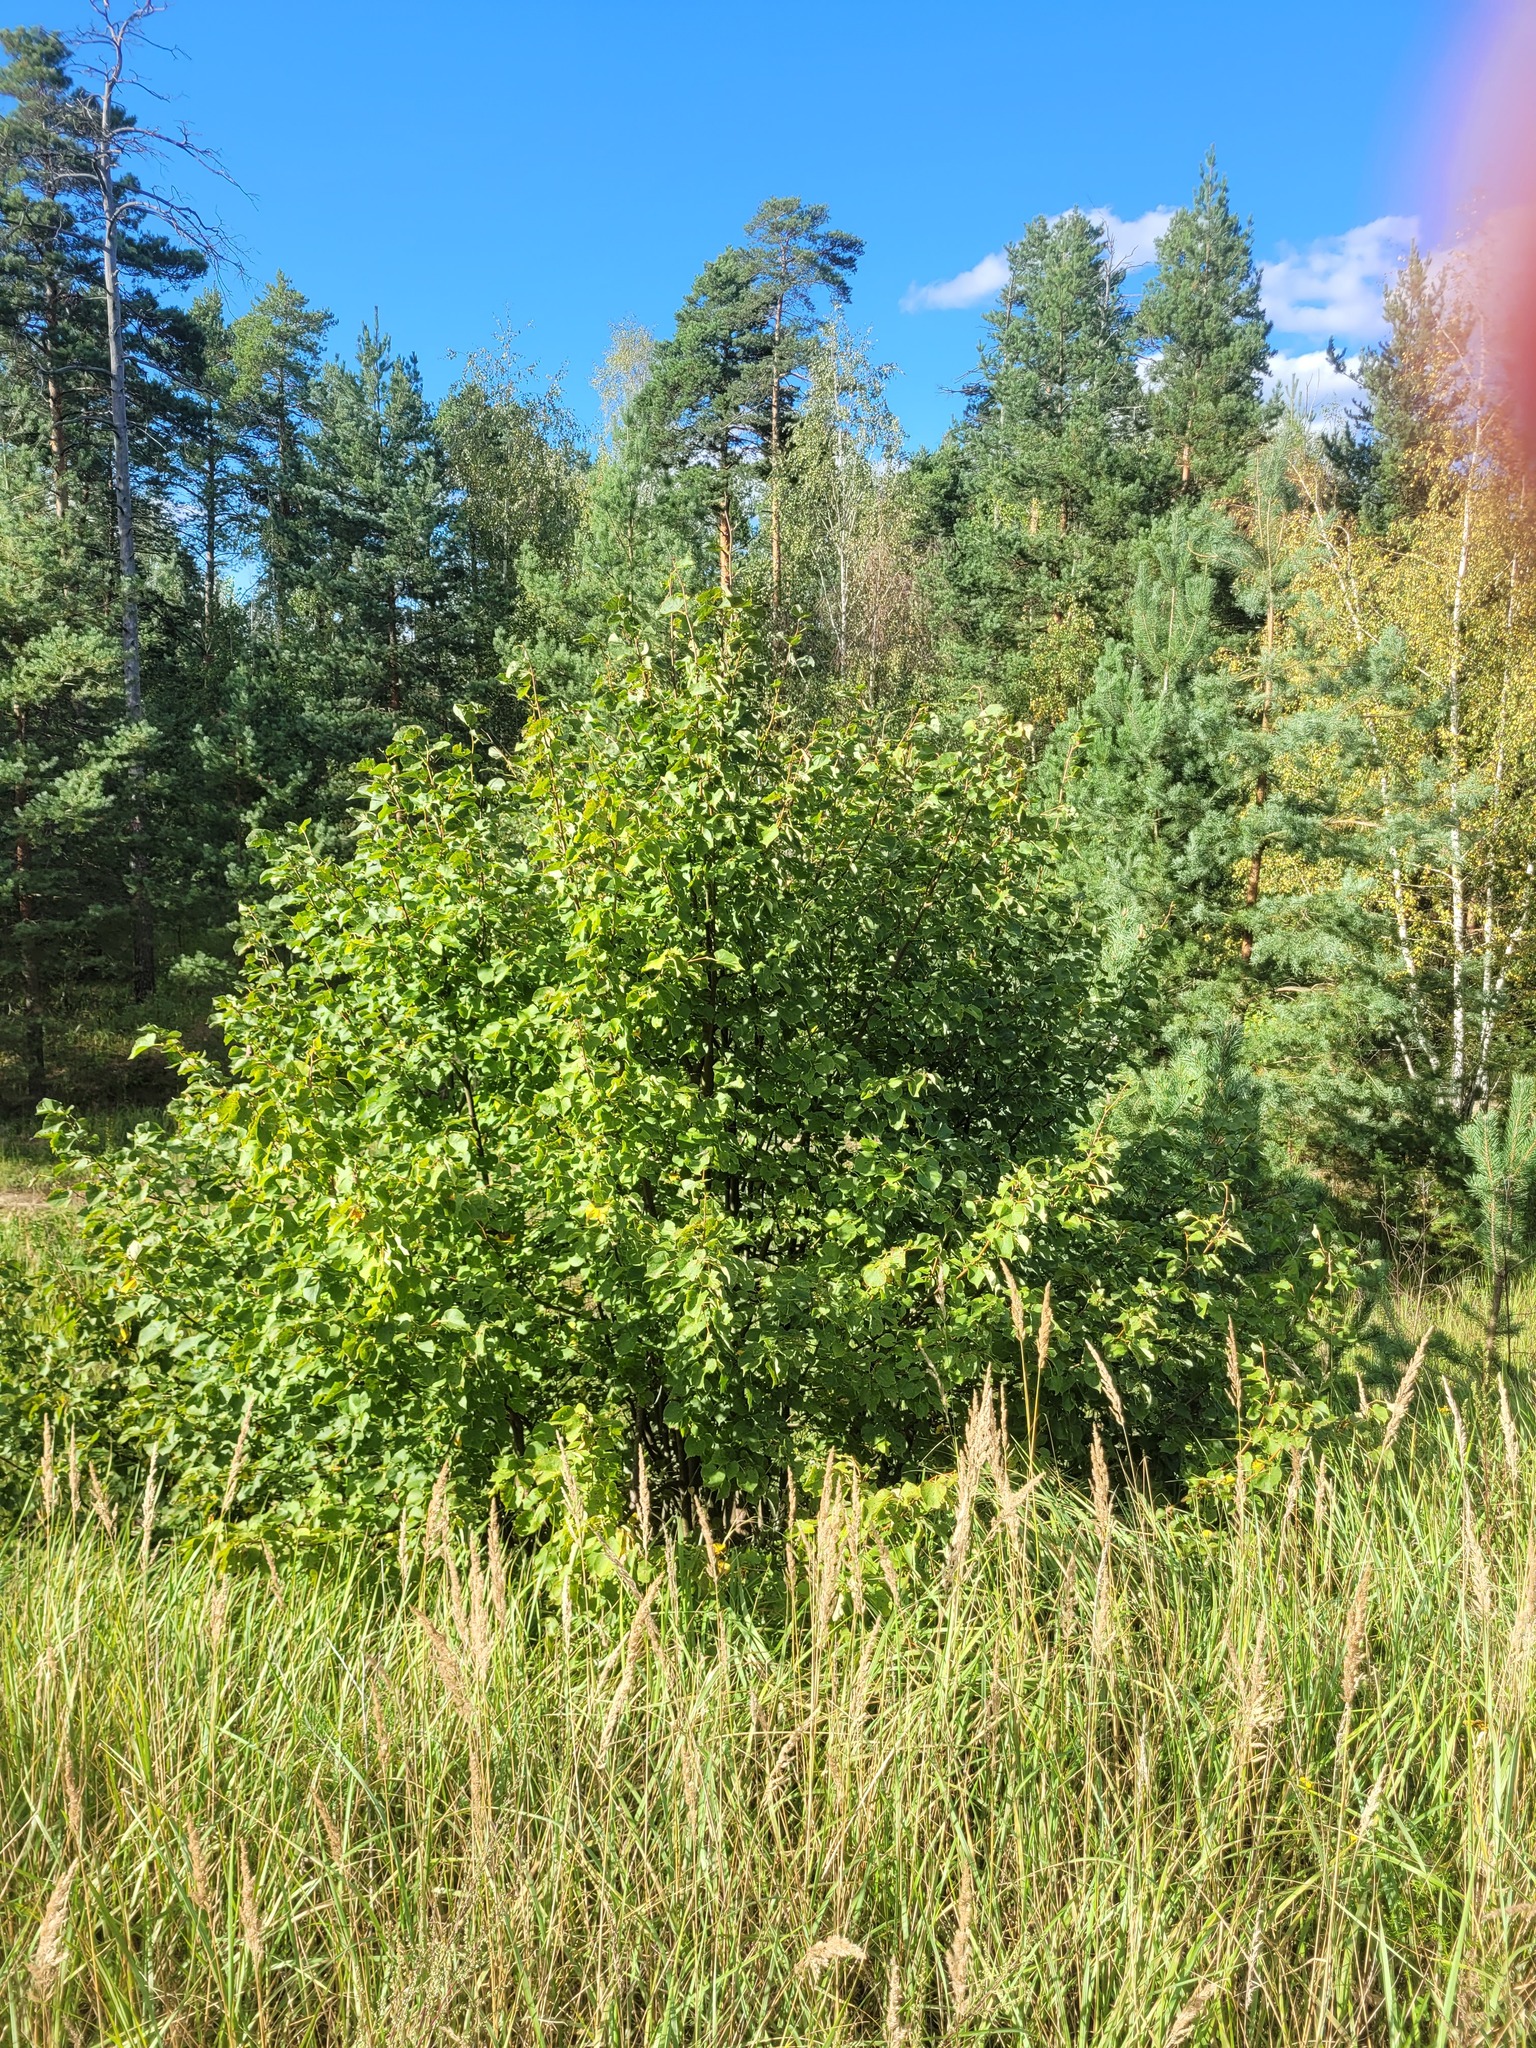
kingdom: Plantae
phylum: Tracheophyta
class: Magnoliopsida
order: Malvales
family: Malvaceae
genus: Tilia
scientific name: Tilia cordata
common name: Small-leaved lime
